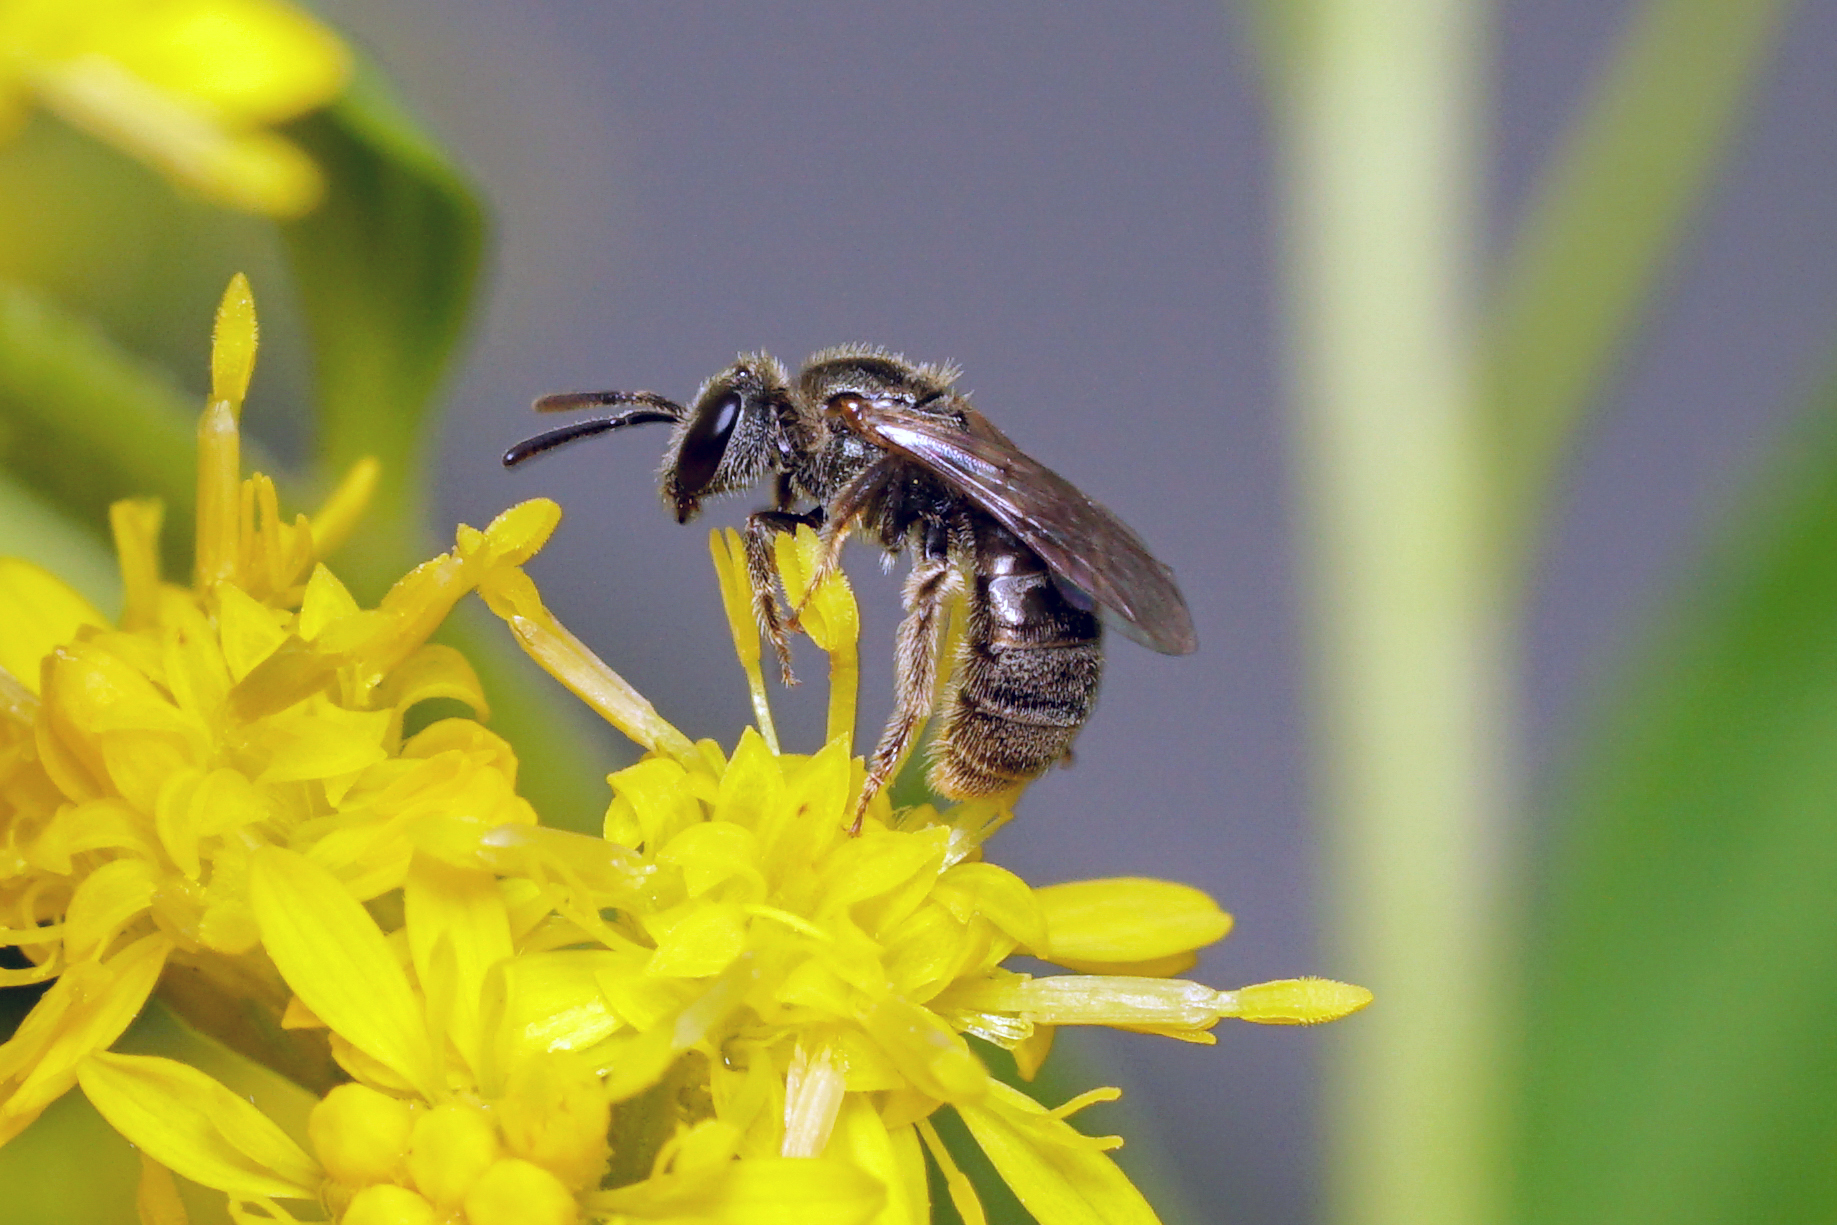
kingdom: Animalia
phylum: Arthropoda
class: Insecta
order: Hymenoptera
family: Halictidae
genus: Dialictus
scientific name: Dialictus
